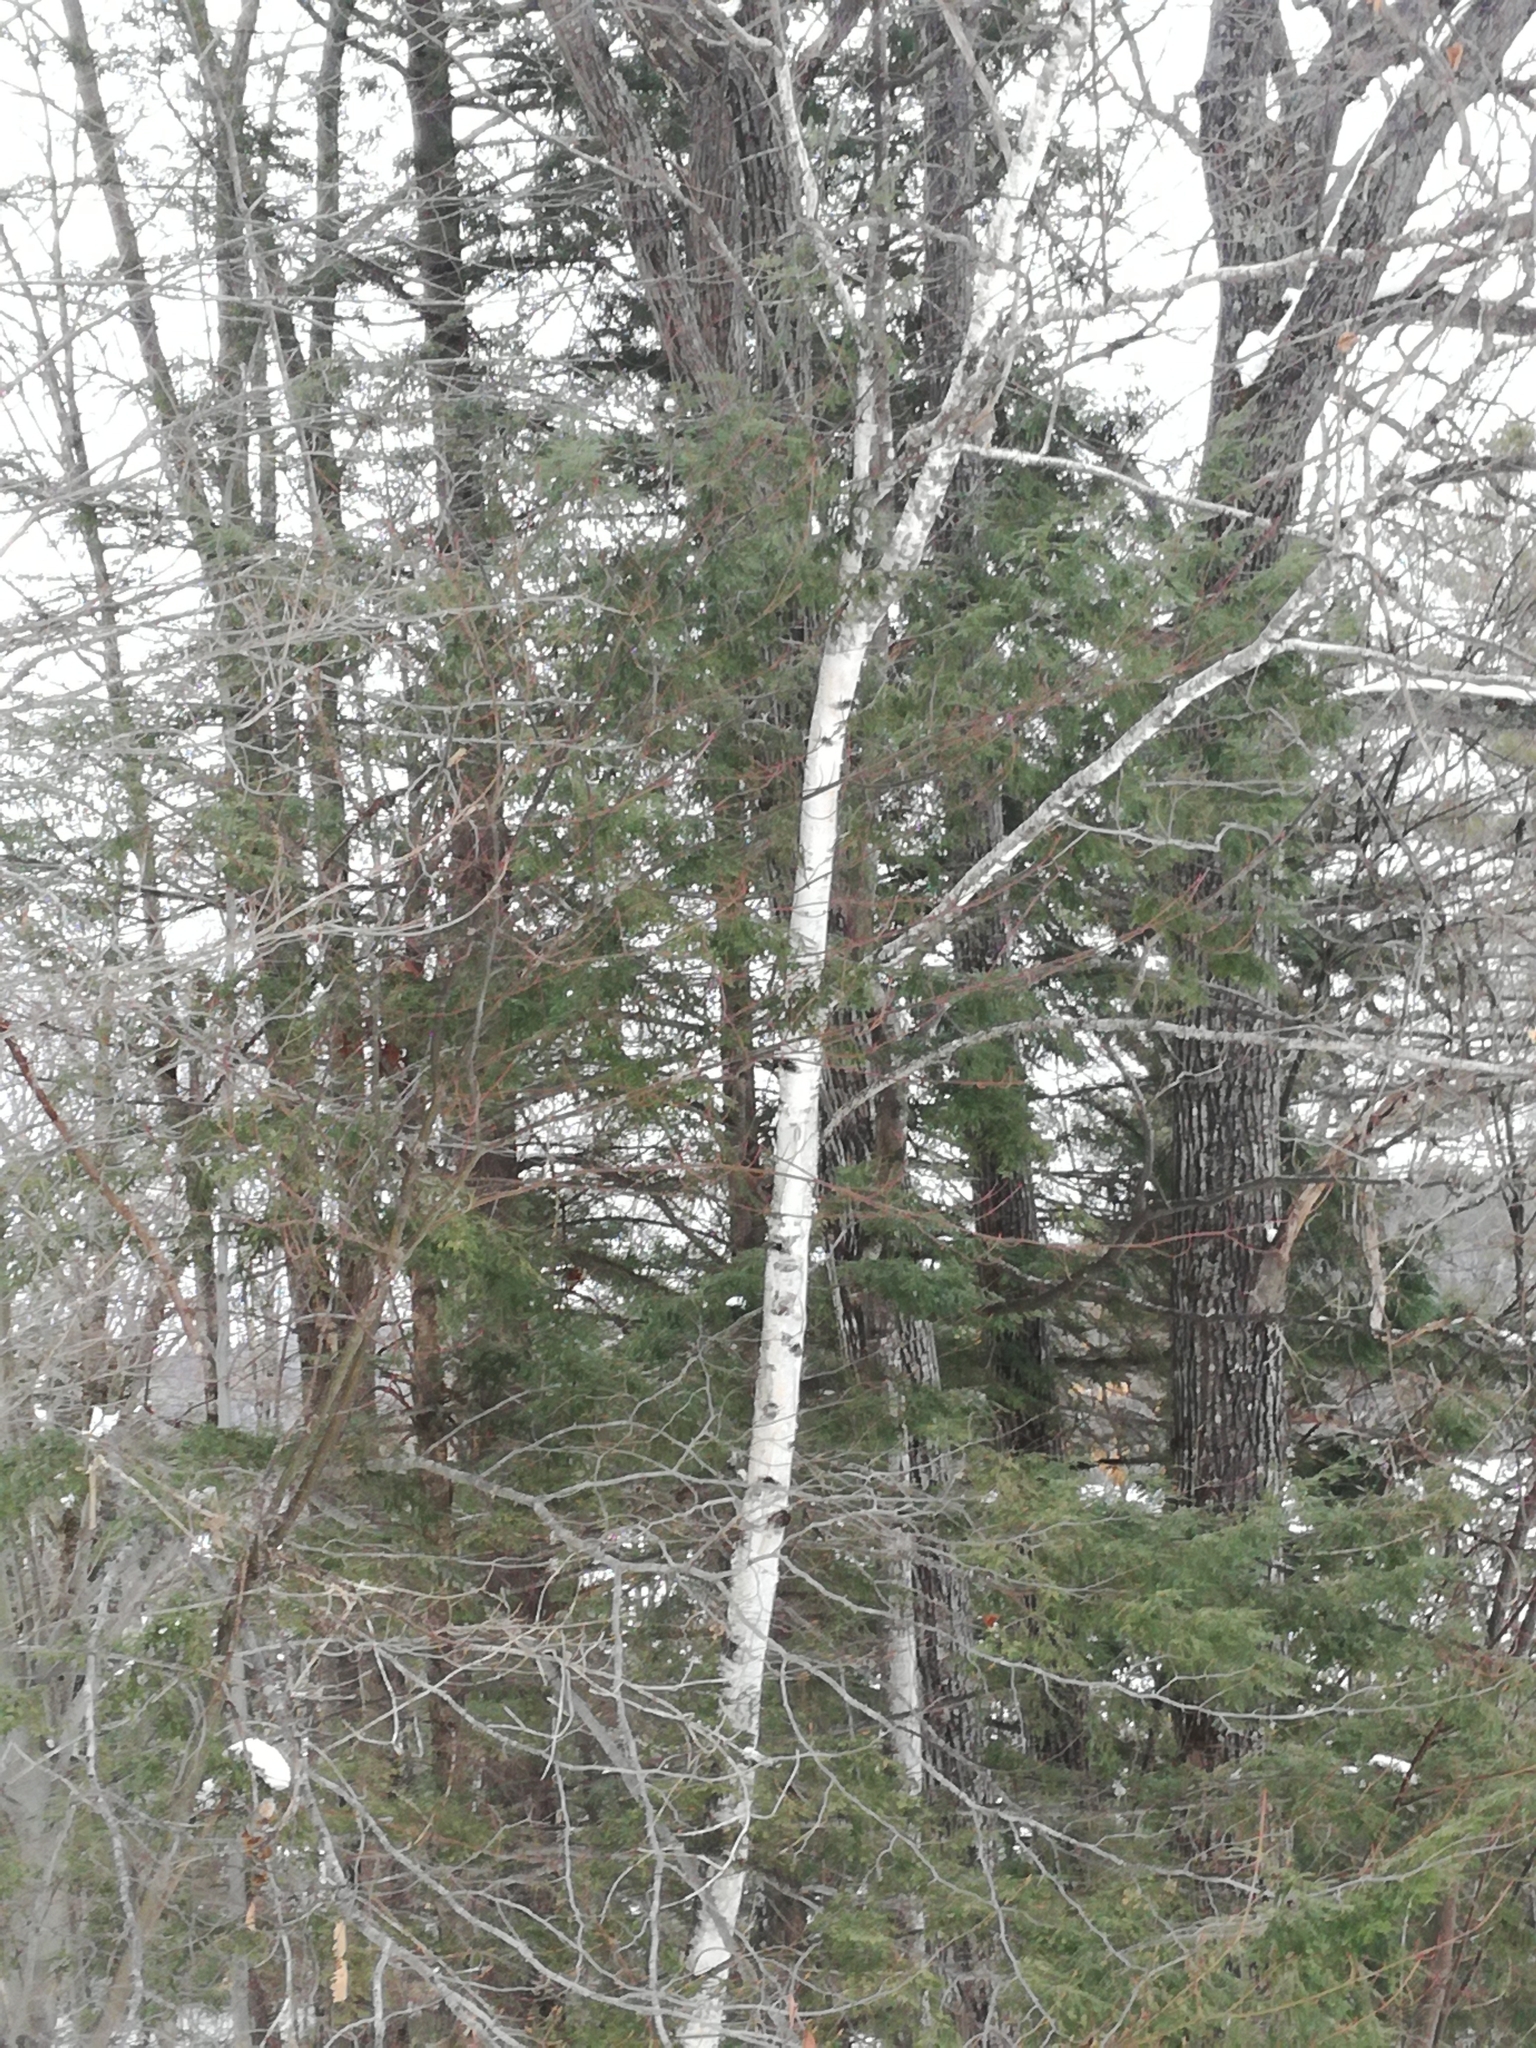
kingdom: Plantae
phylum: Tracheophyta
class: Magnoliopsida
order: Fagales
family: Betulaceae
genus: Betula
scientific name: Betula papyrifera
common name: Paper birch
